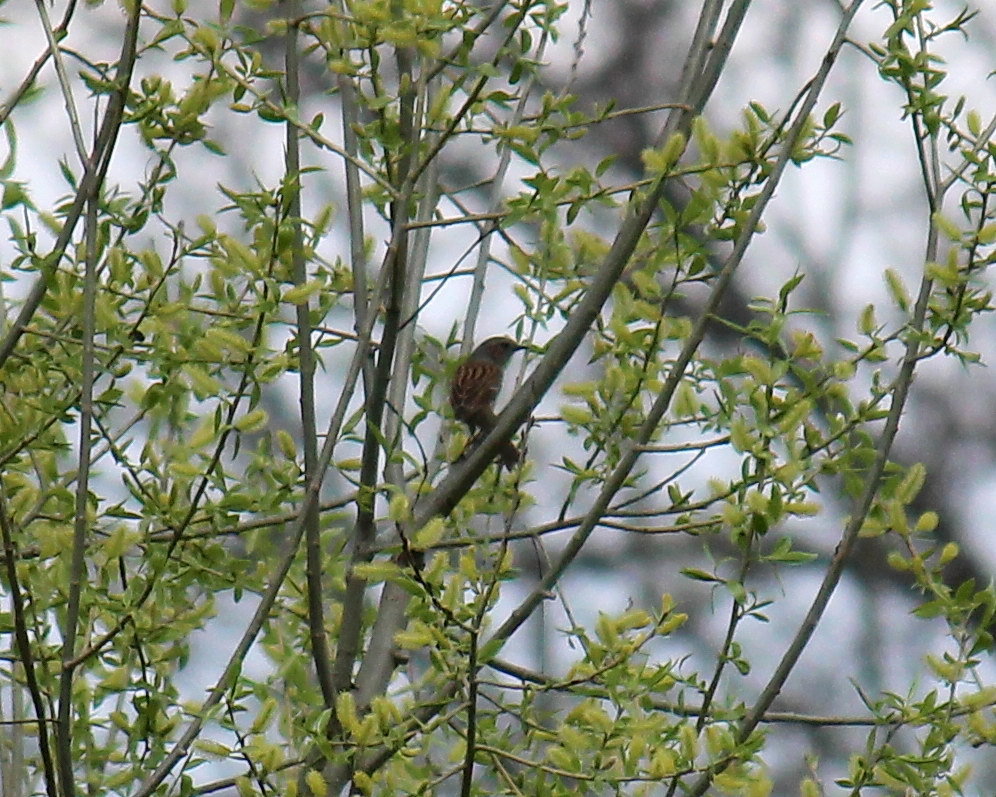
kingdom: Animalia
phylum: Chordata
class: Aves
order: Passeriformes
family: Prunellidae
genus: Prunella
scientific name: Prunella modularis
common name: Dunnock
